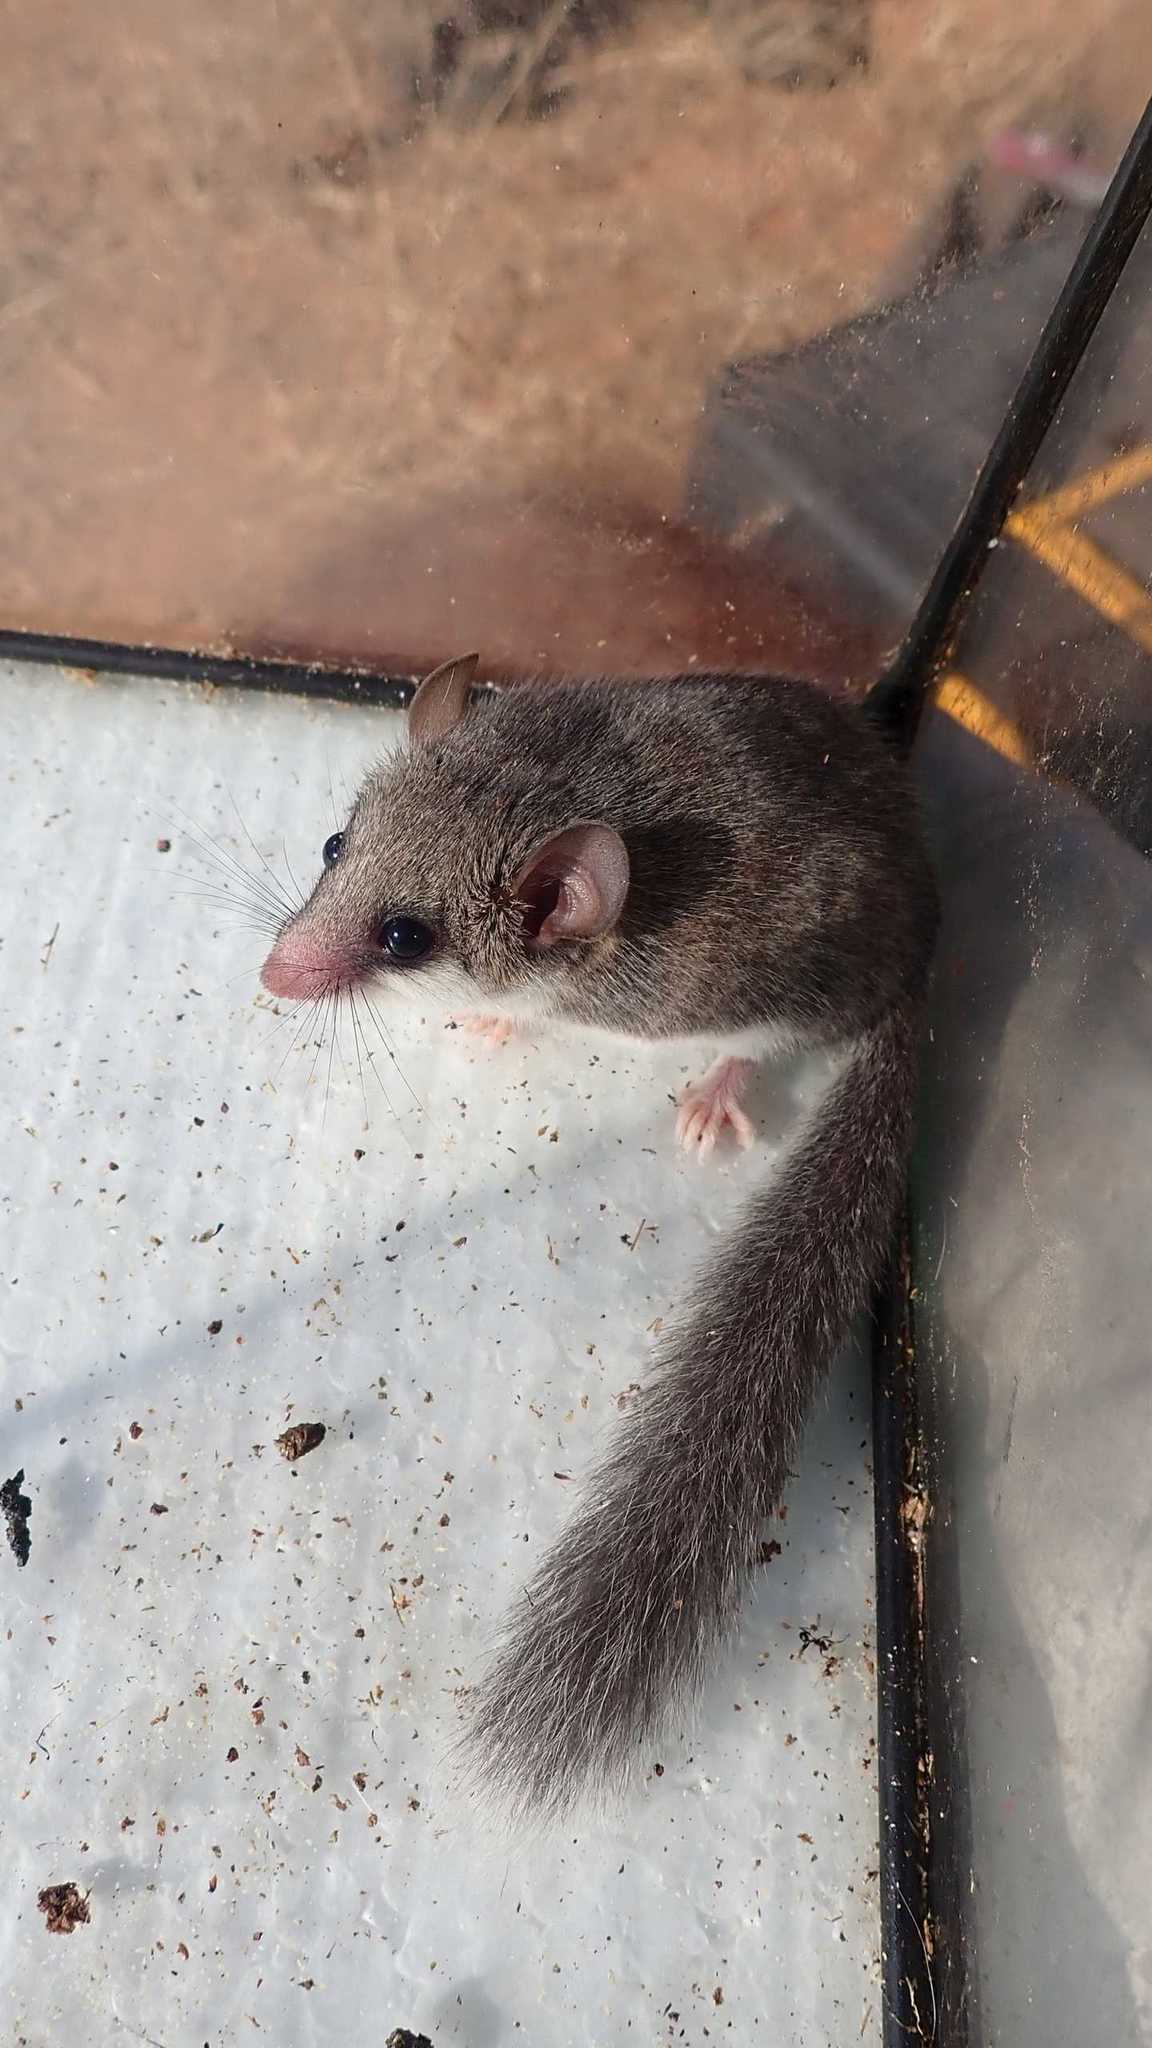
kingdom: Animalia
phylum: Chordata
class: Mammalia
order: Rodentia
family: Gliridae
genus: Graphiurus
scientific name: Graphiurus murinus
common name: Forest african dormouse
